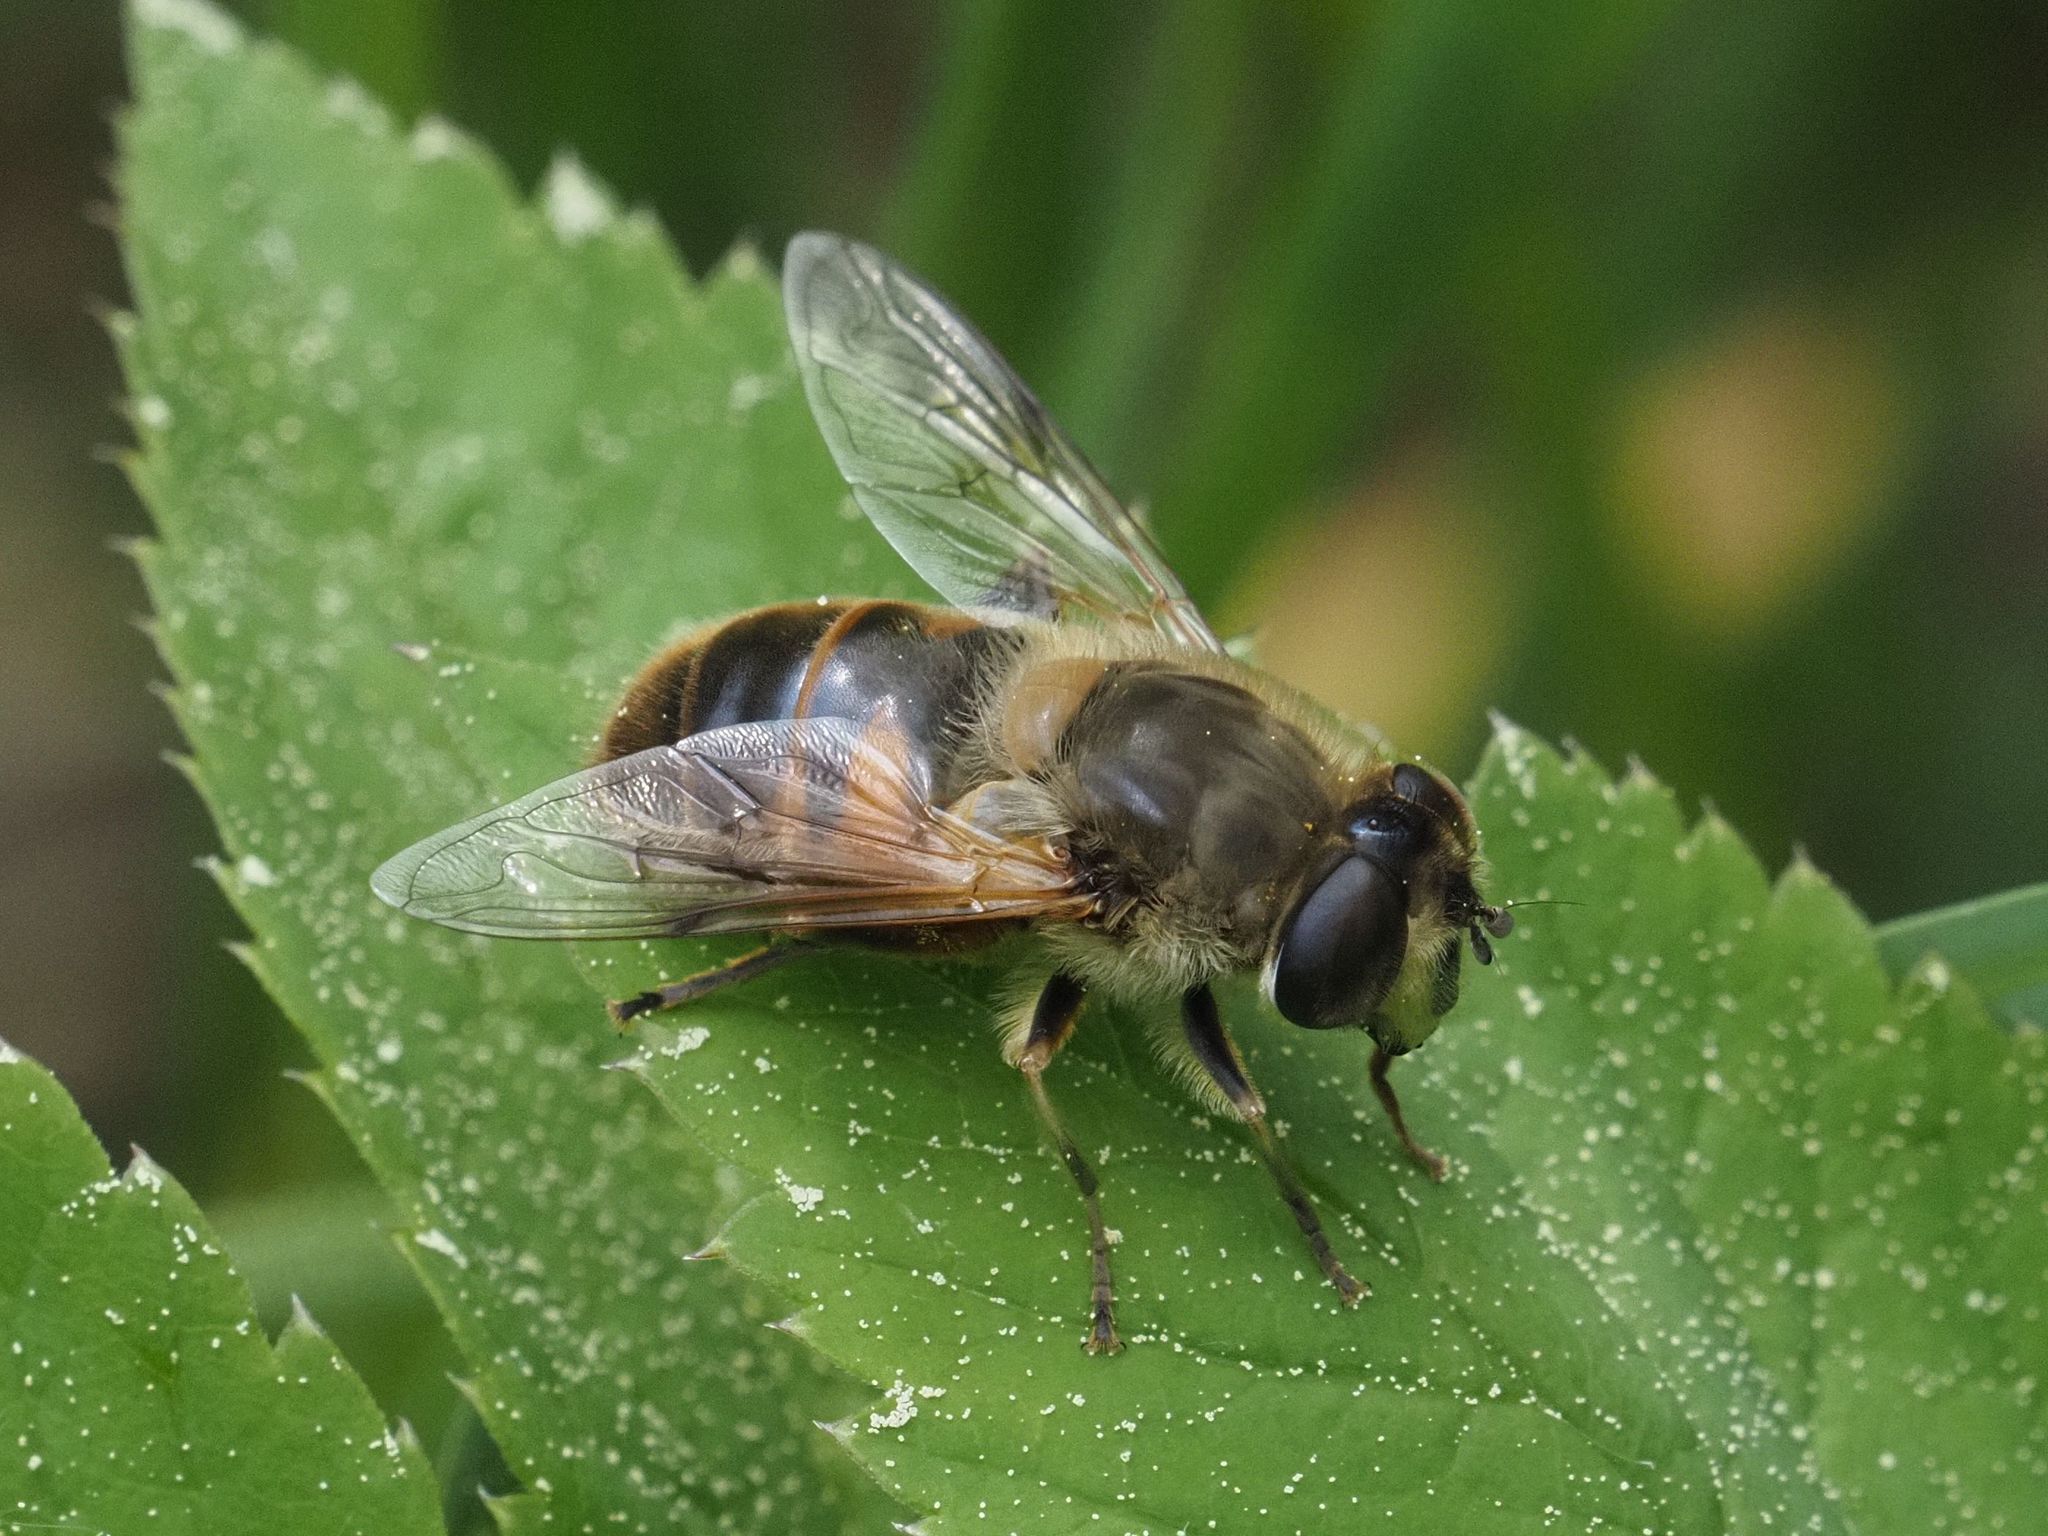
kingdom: Animalia
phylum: Arthropoda
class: Insecta
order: Diptera
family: Syrphidae
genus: Eristalis
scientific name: Eristalis tenax
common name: Drone fly
